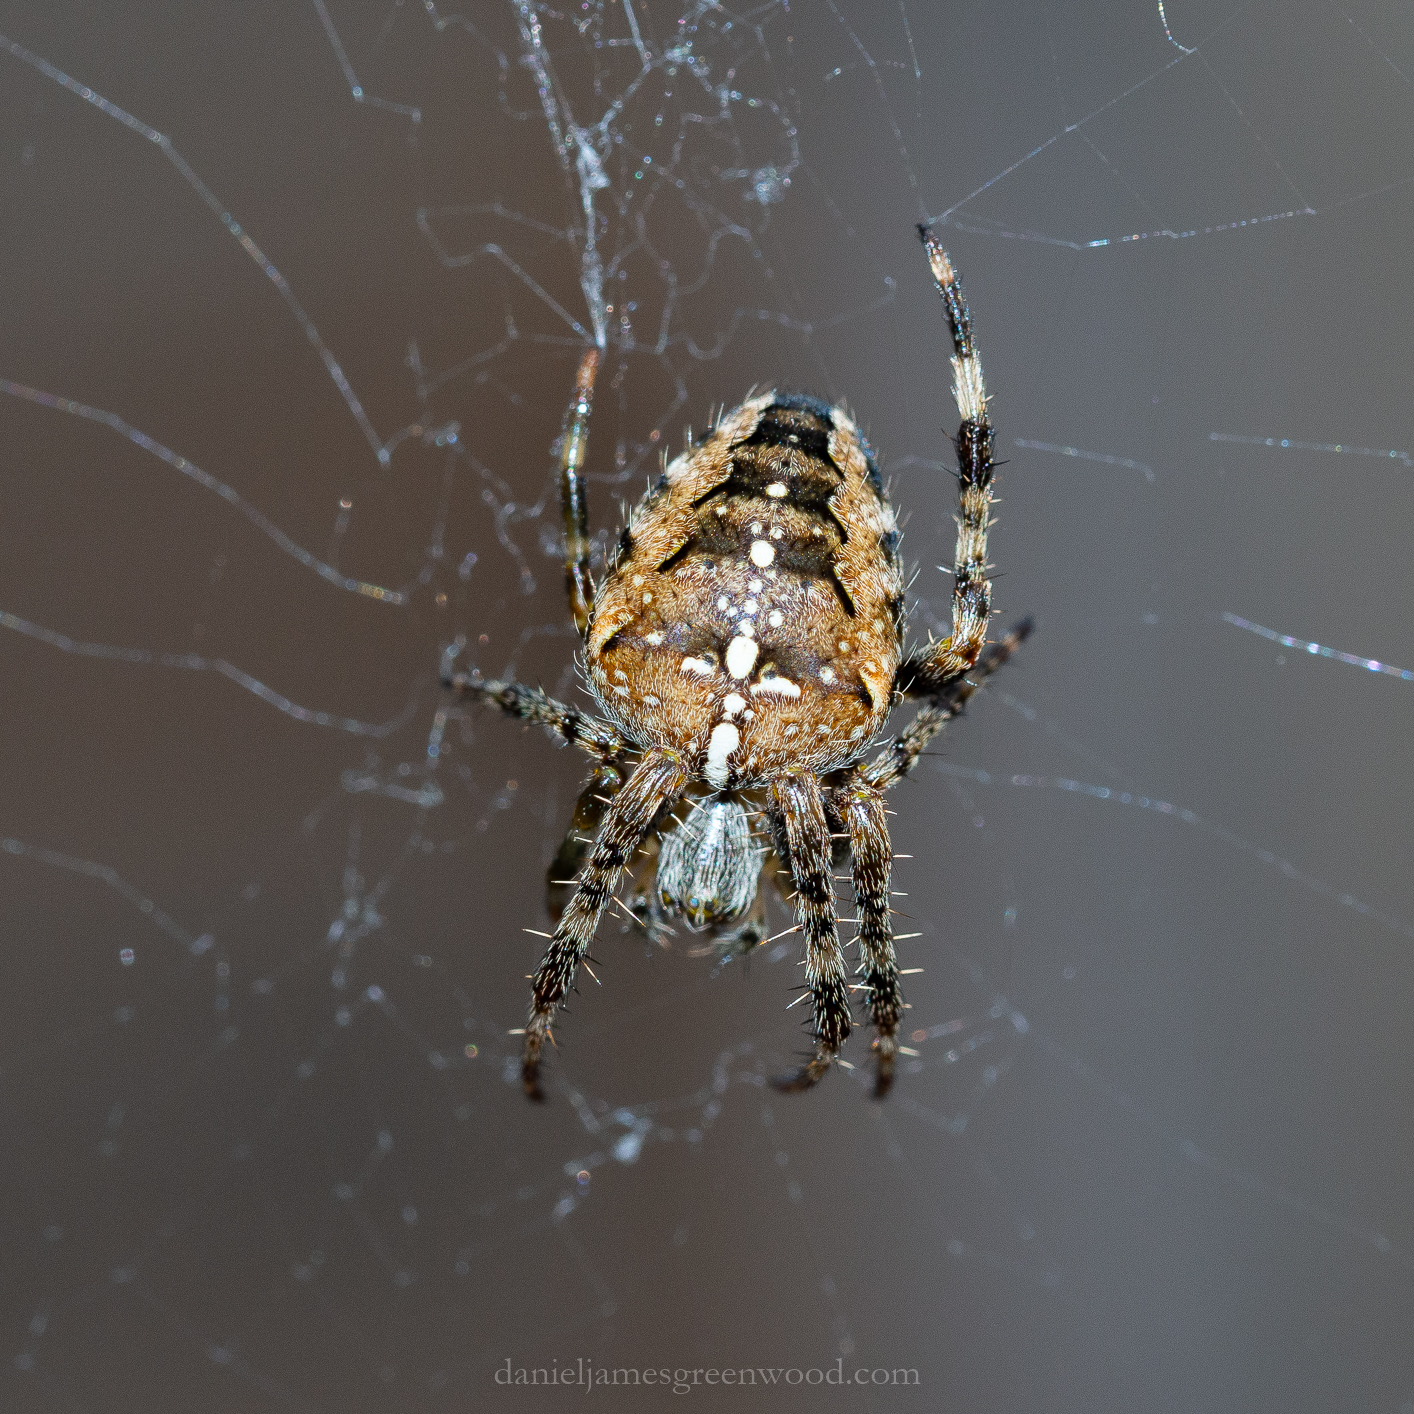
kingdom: Animalia
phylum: Arthropoda
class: Arachnida
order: Araneae
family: Araneidae
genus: Araneus
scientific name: Araneus diadematus
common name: Cross orbweaver
